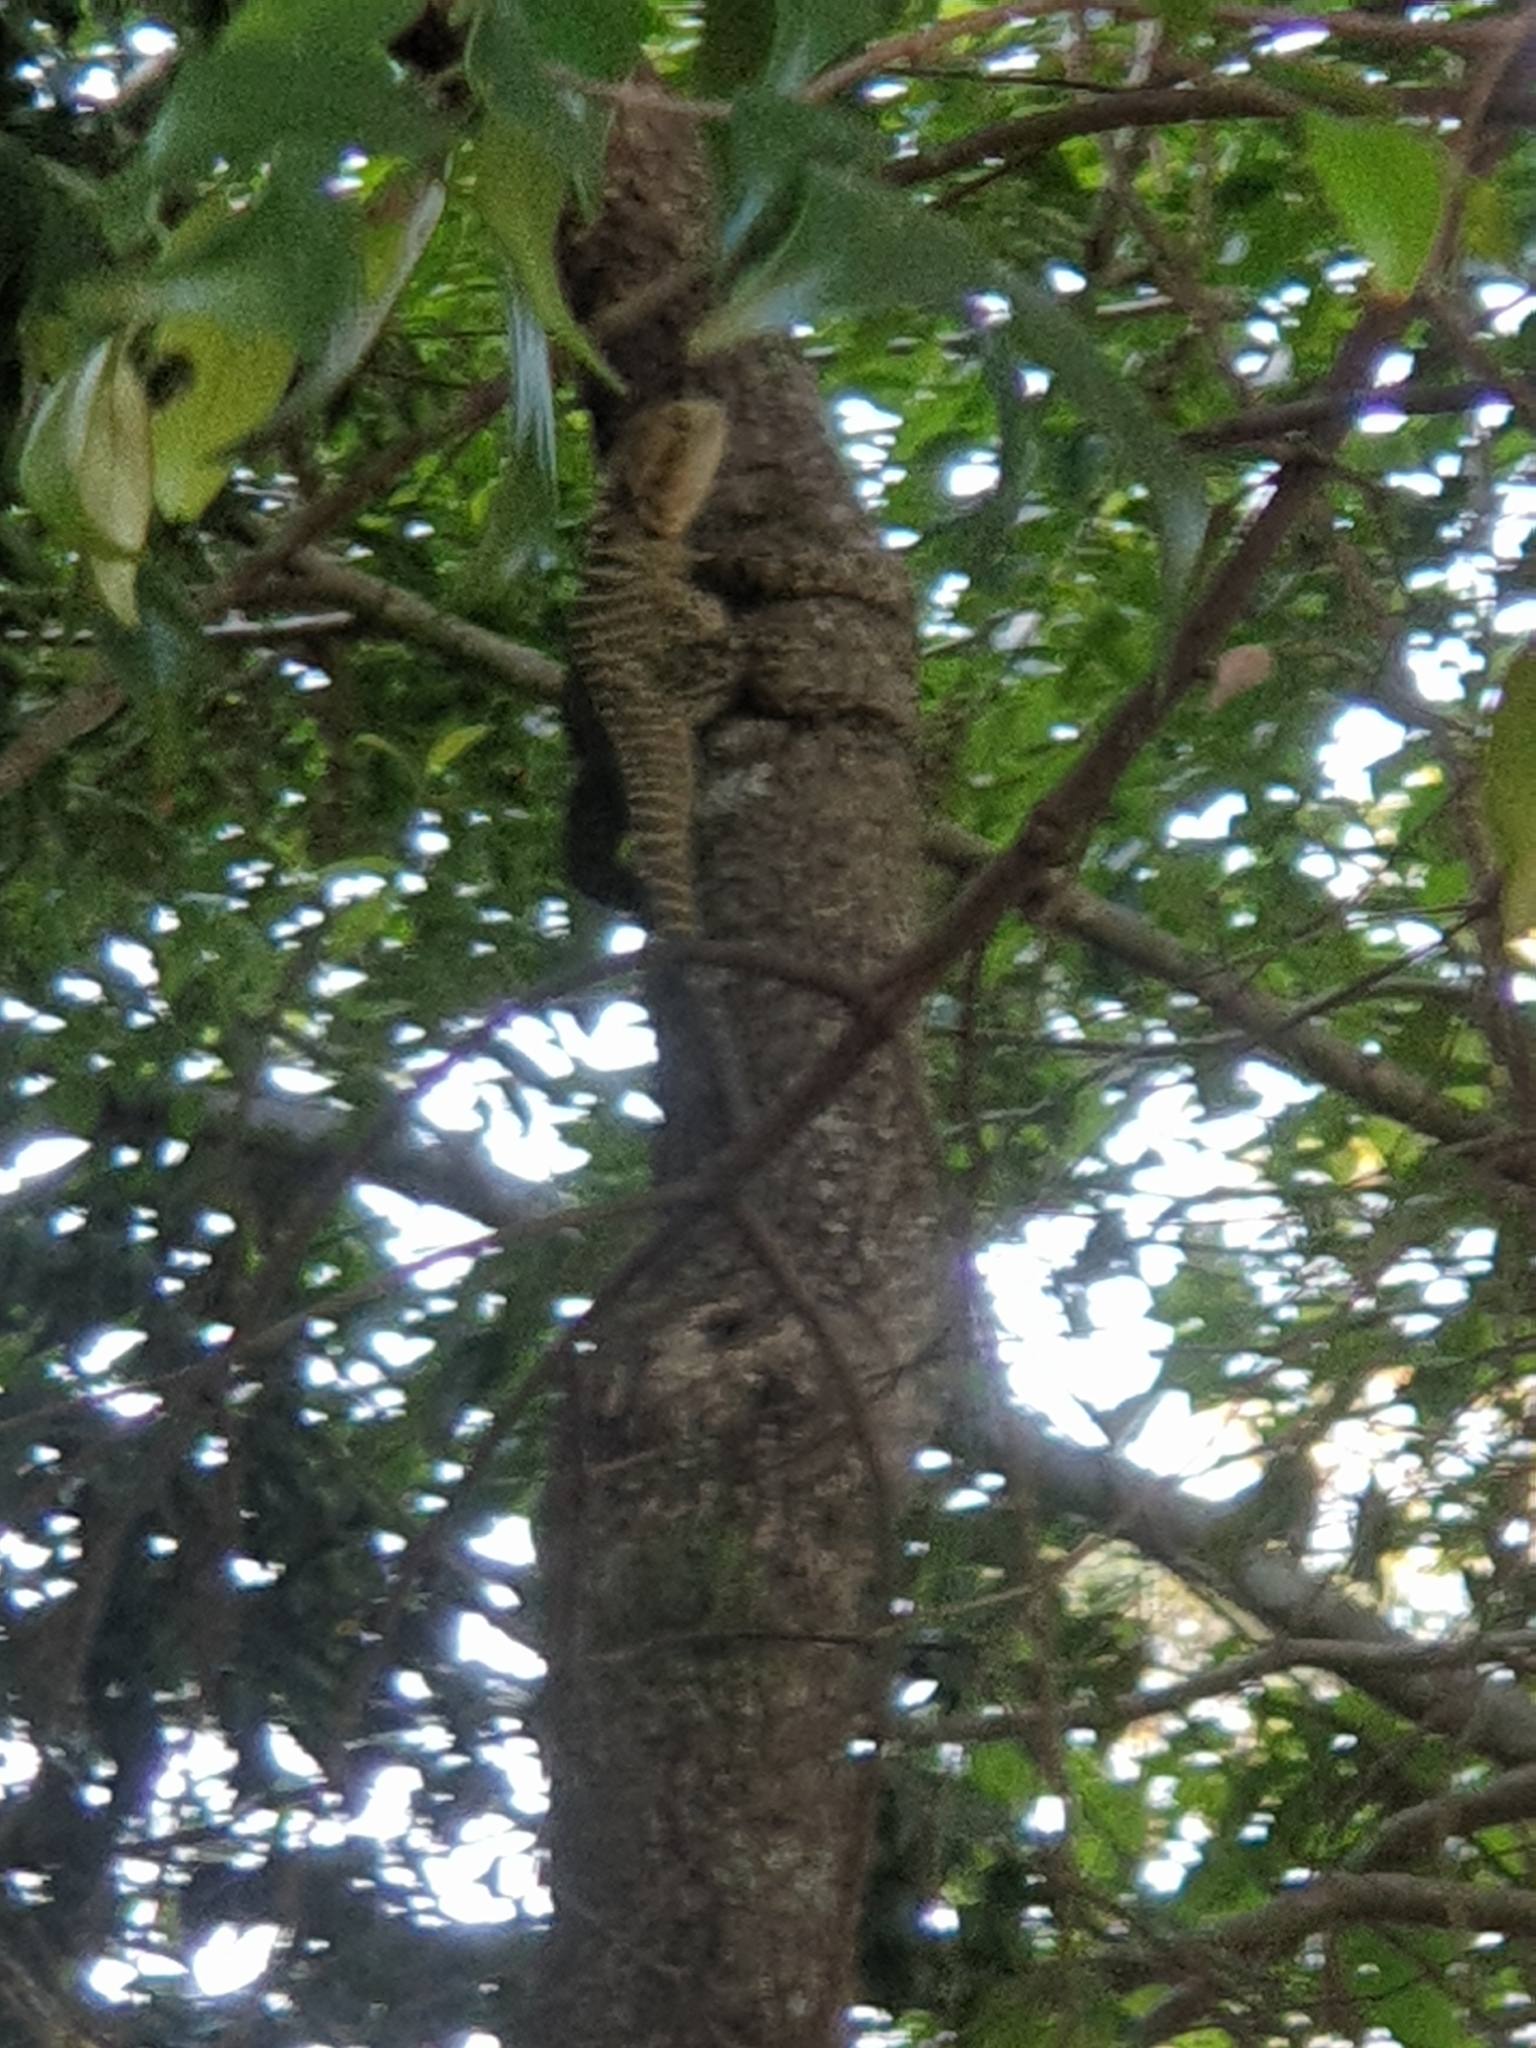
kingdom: Animalia
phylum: Chordata
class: Squamata
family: Agamidae
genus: Intellagama
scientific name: Intellagama lesueurii
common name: Eastern water dragon
